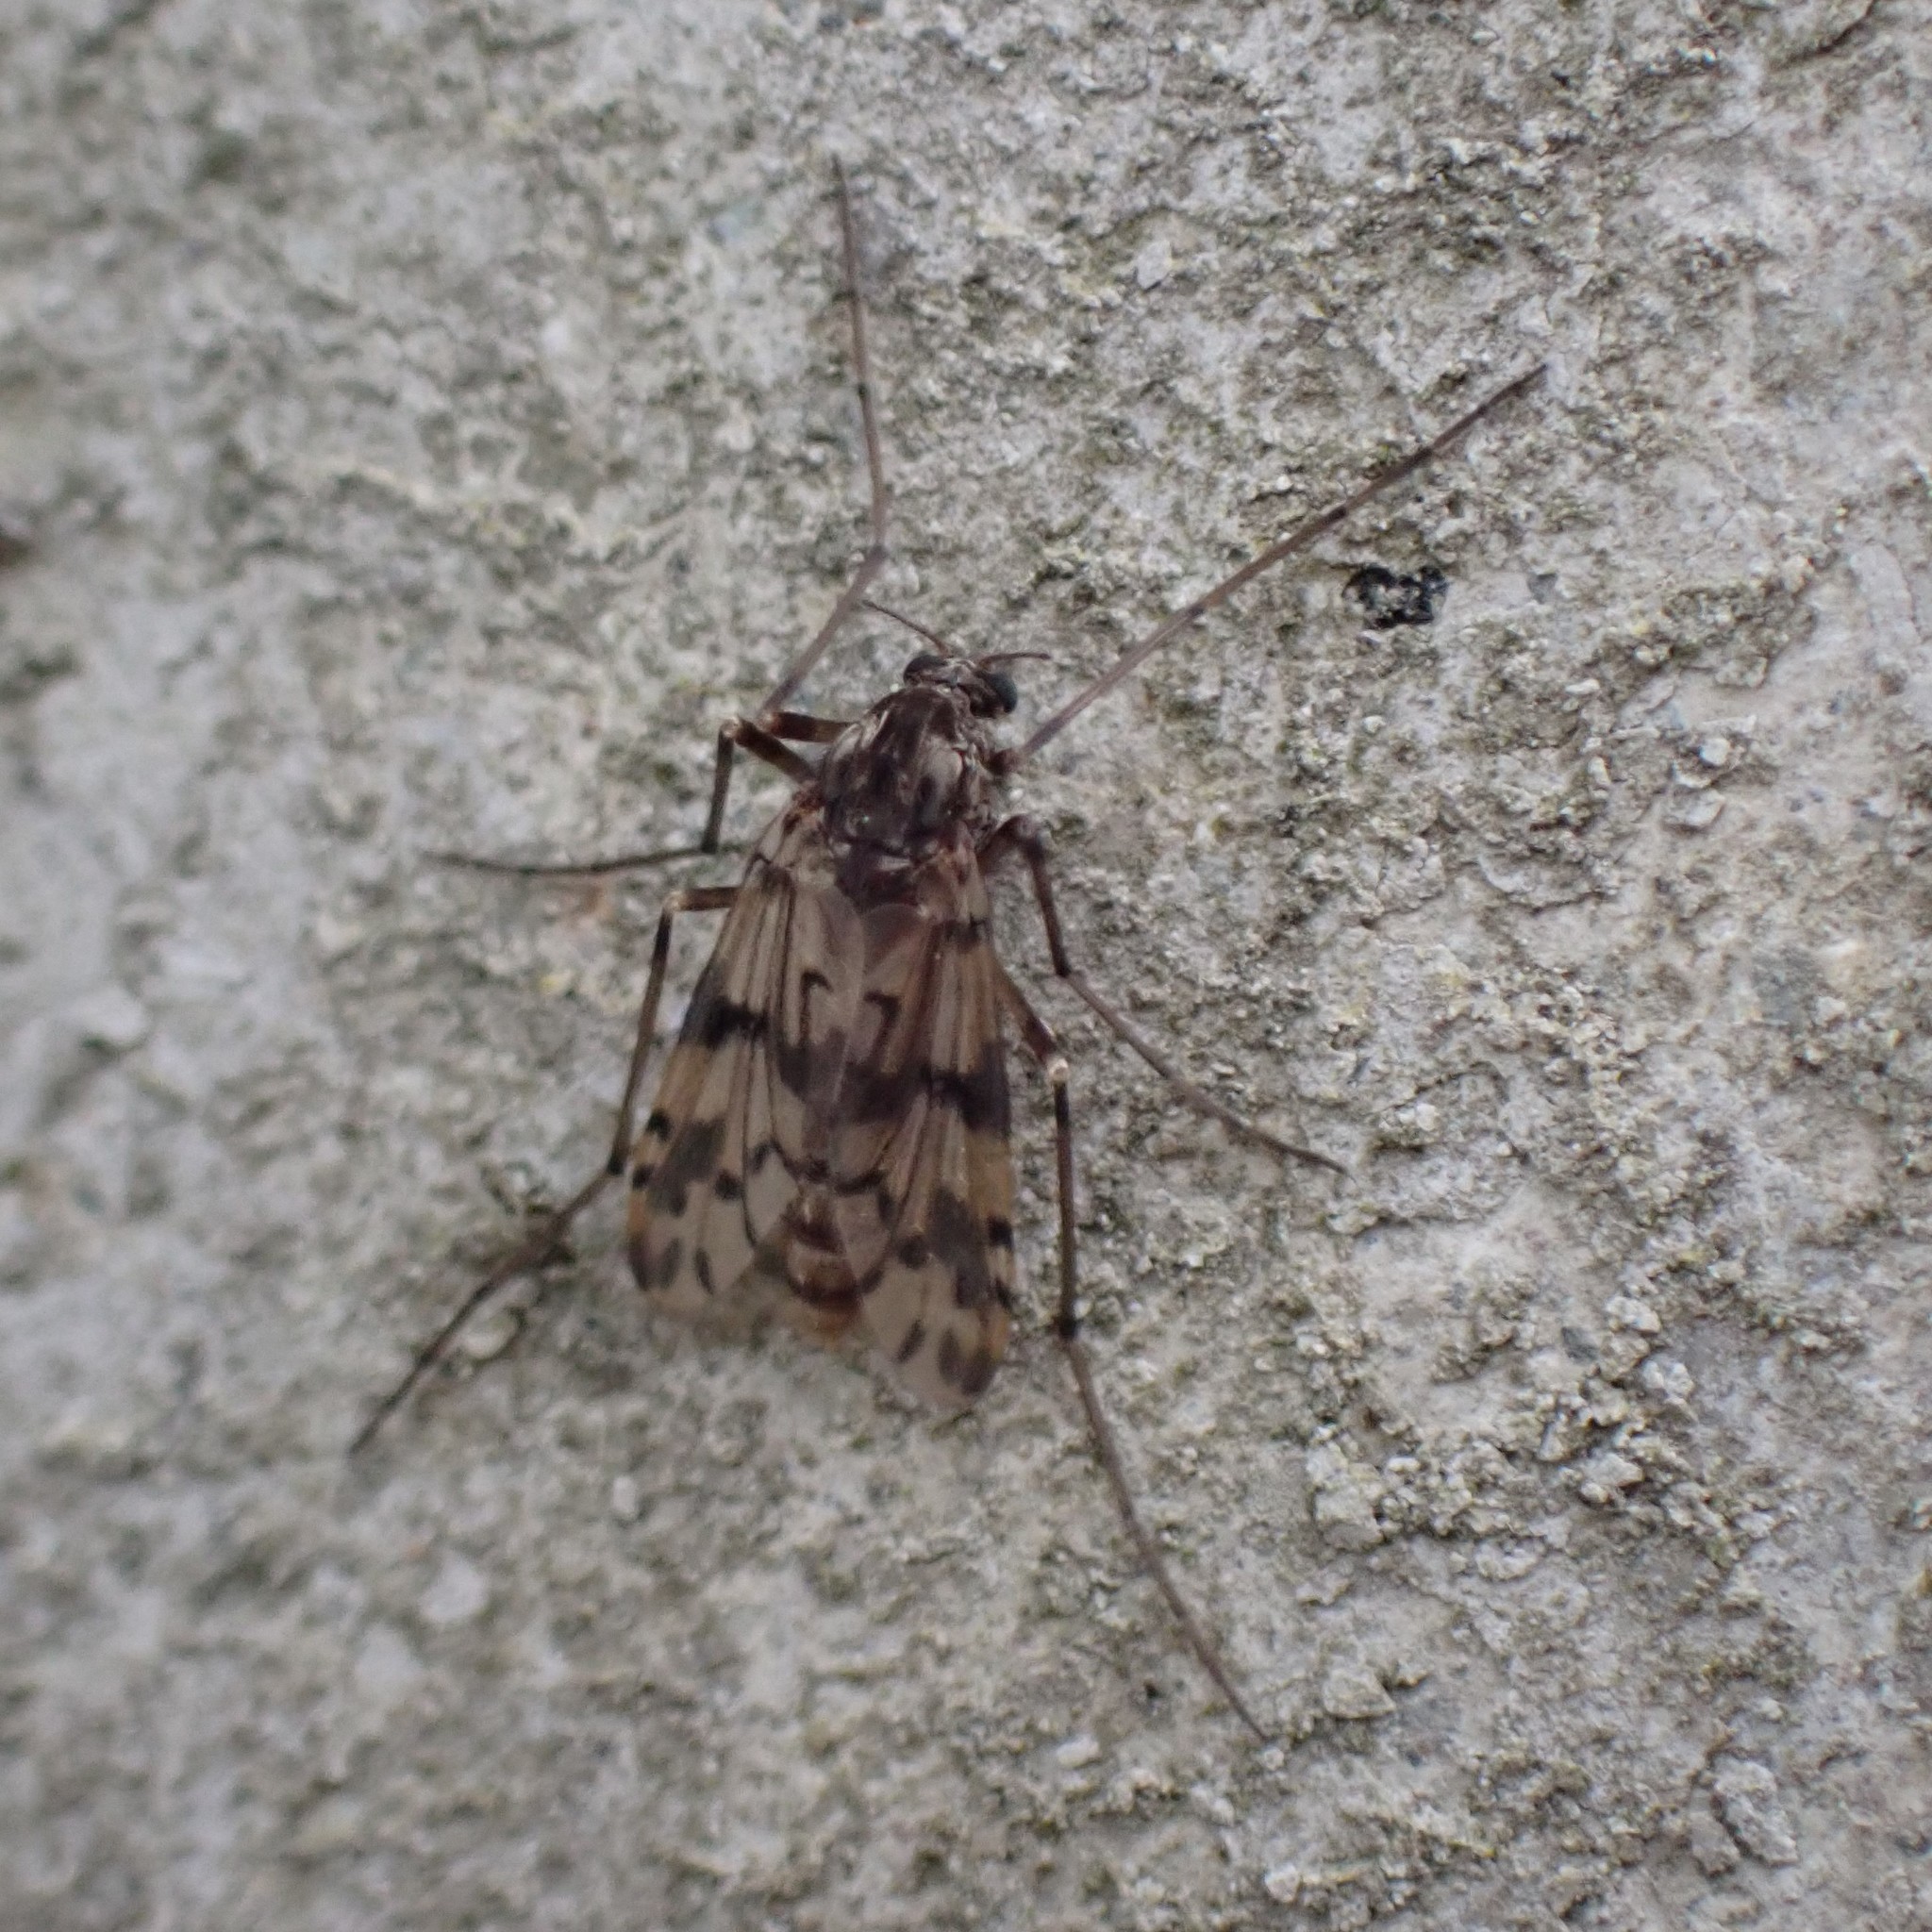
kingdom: Animalia
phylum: Arthropoda
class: Insecta
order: Diptera
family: Chironomidae
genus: Alotanypus
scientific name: Alotanypus venusta
